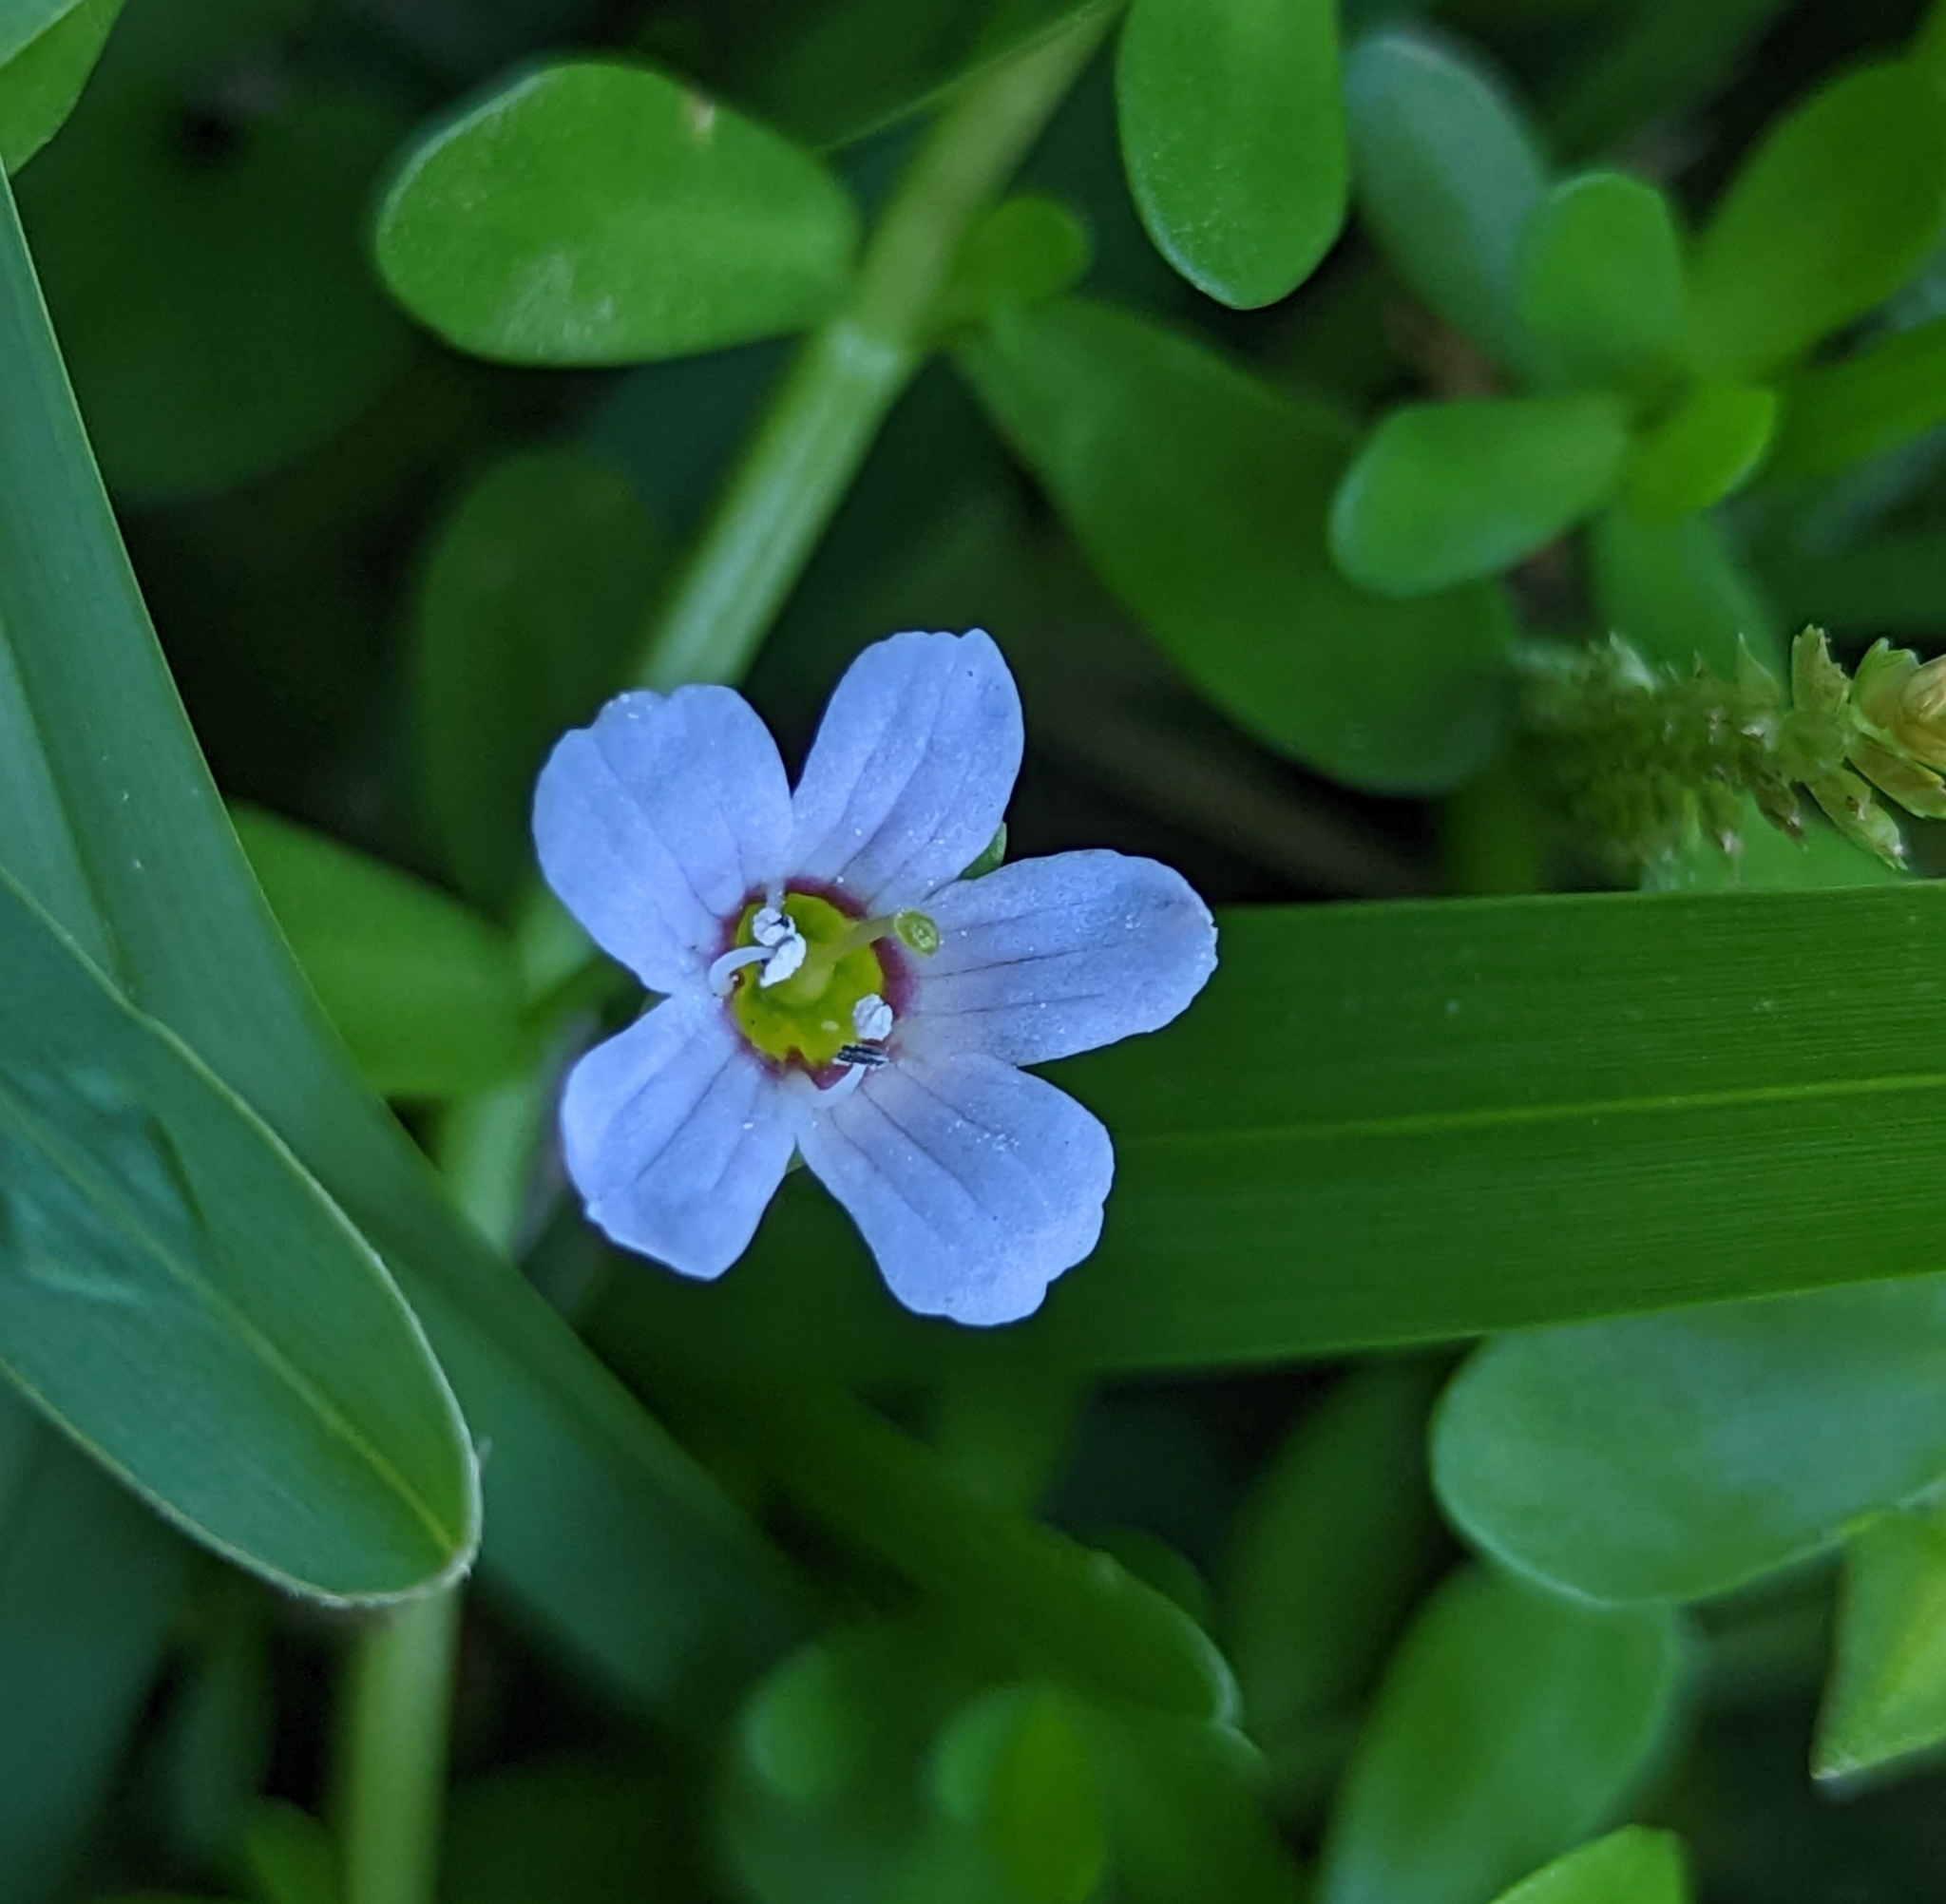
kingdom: Plantae
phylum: Tracheophyta
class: Magnoliopsida
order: Lamiales
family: Plantaginaceae
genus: Bacopa
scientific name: Bacopa monnieri
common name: Indian-pennywort
